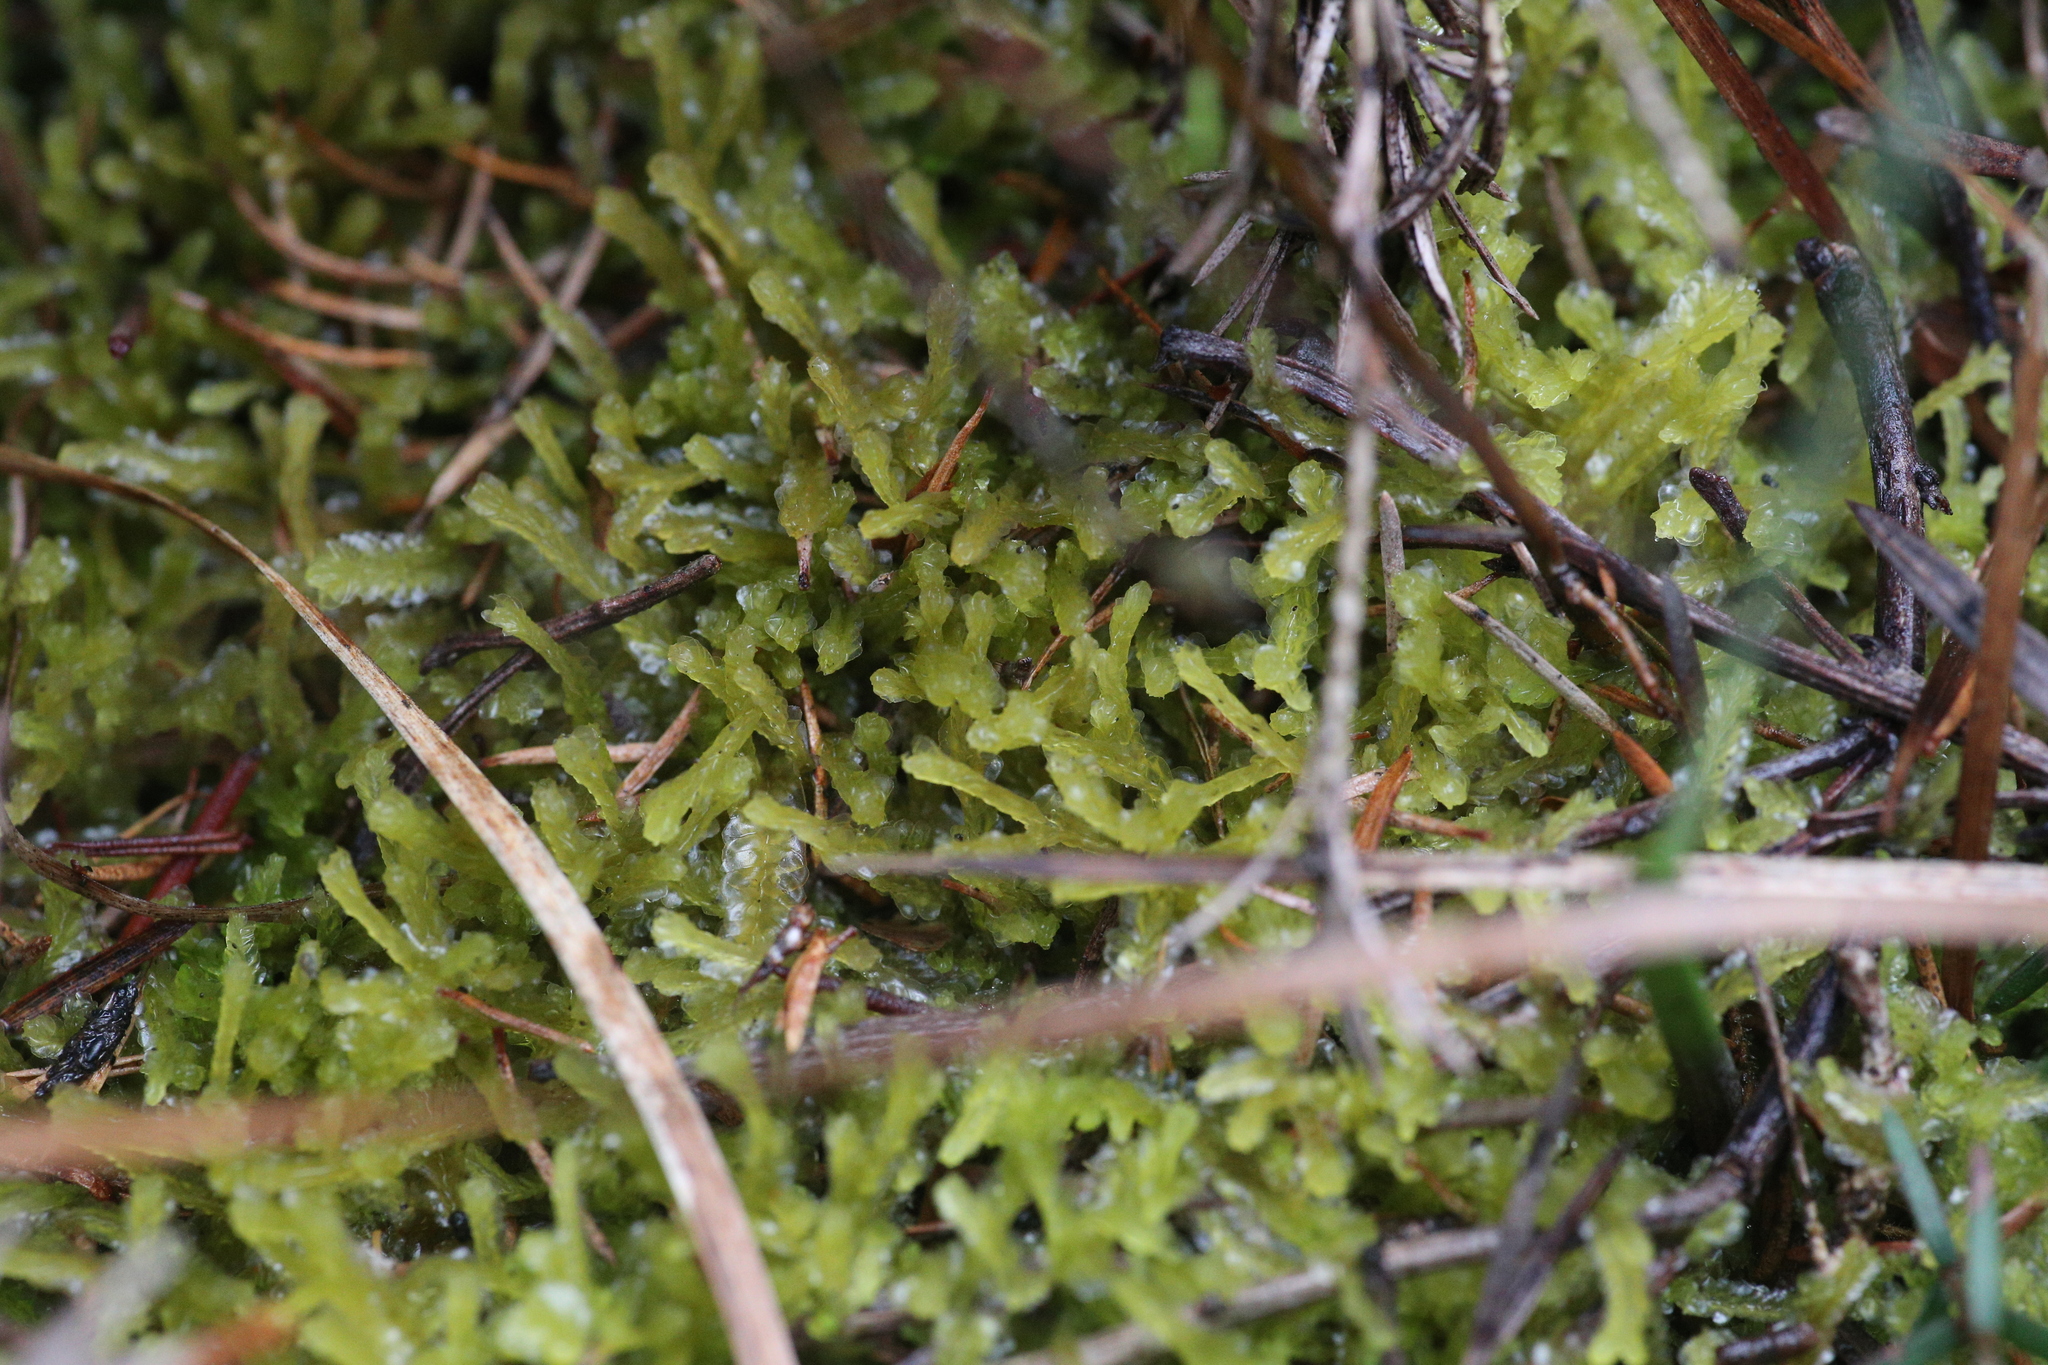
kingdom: Plantae
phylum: Marchantiophyta
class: Jungermanniopsida
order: Jungermanniales
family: Lophocoleaceae
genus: Lophocolea
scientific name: Lophocolea semiteres
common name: Southern crestwort
